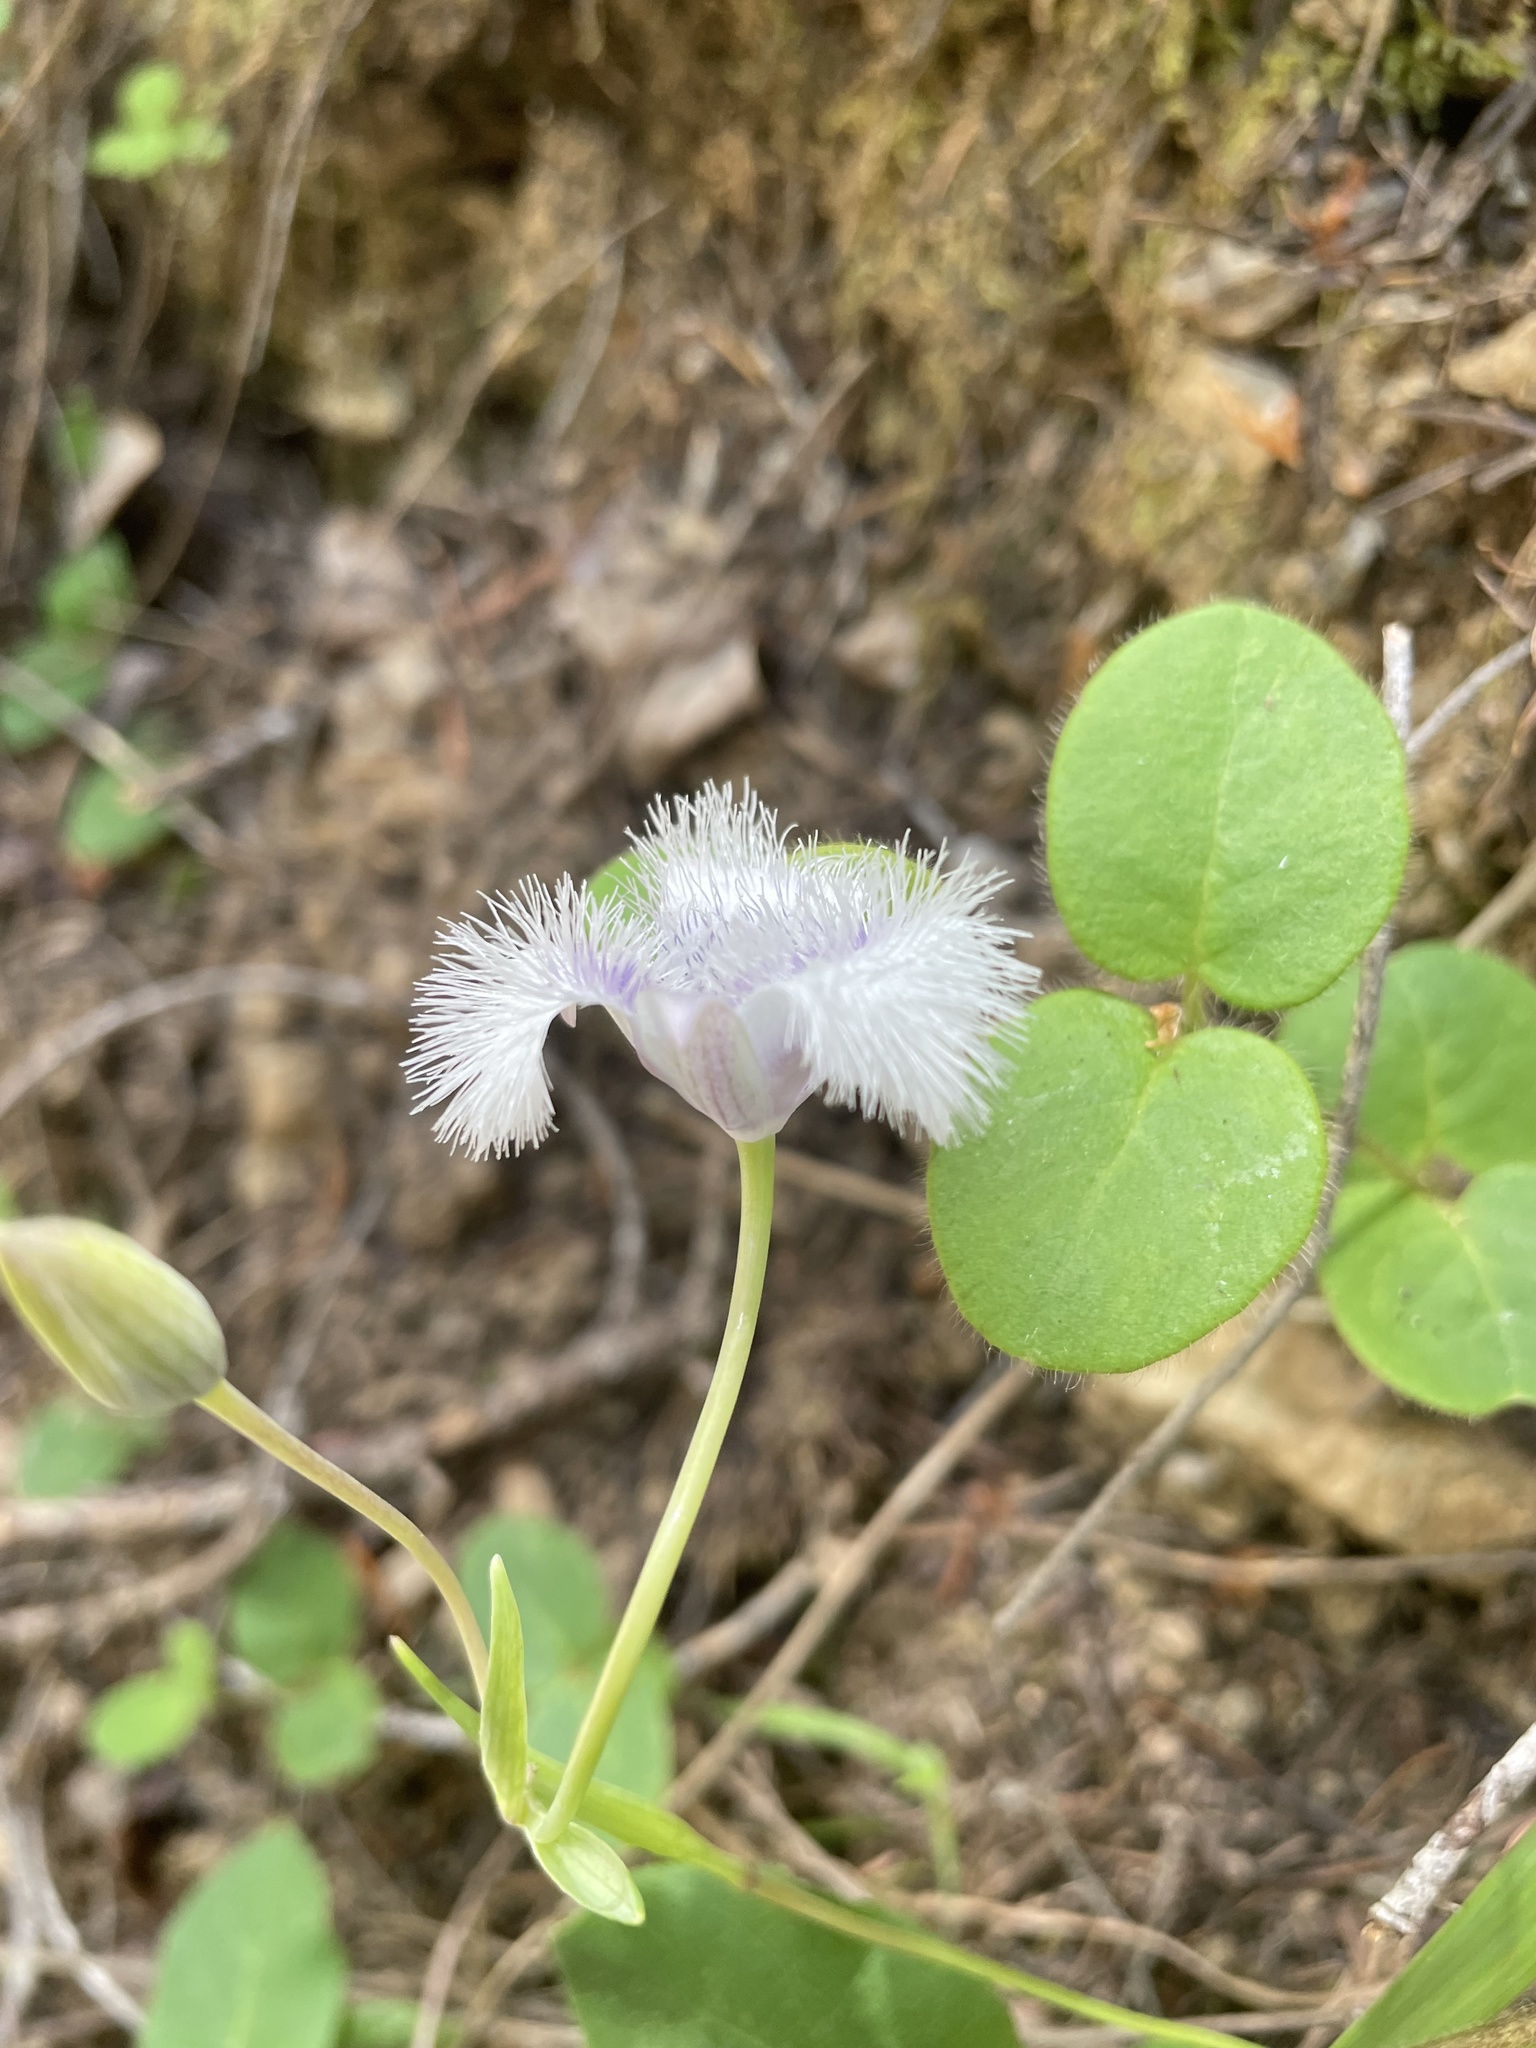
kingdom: Plantae
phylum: Tracheophyta
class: Liliopsida
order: Liliales
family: Liliaceae
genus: Calochortus
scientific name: Calochortus tolmiei
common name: Pussy-ears
